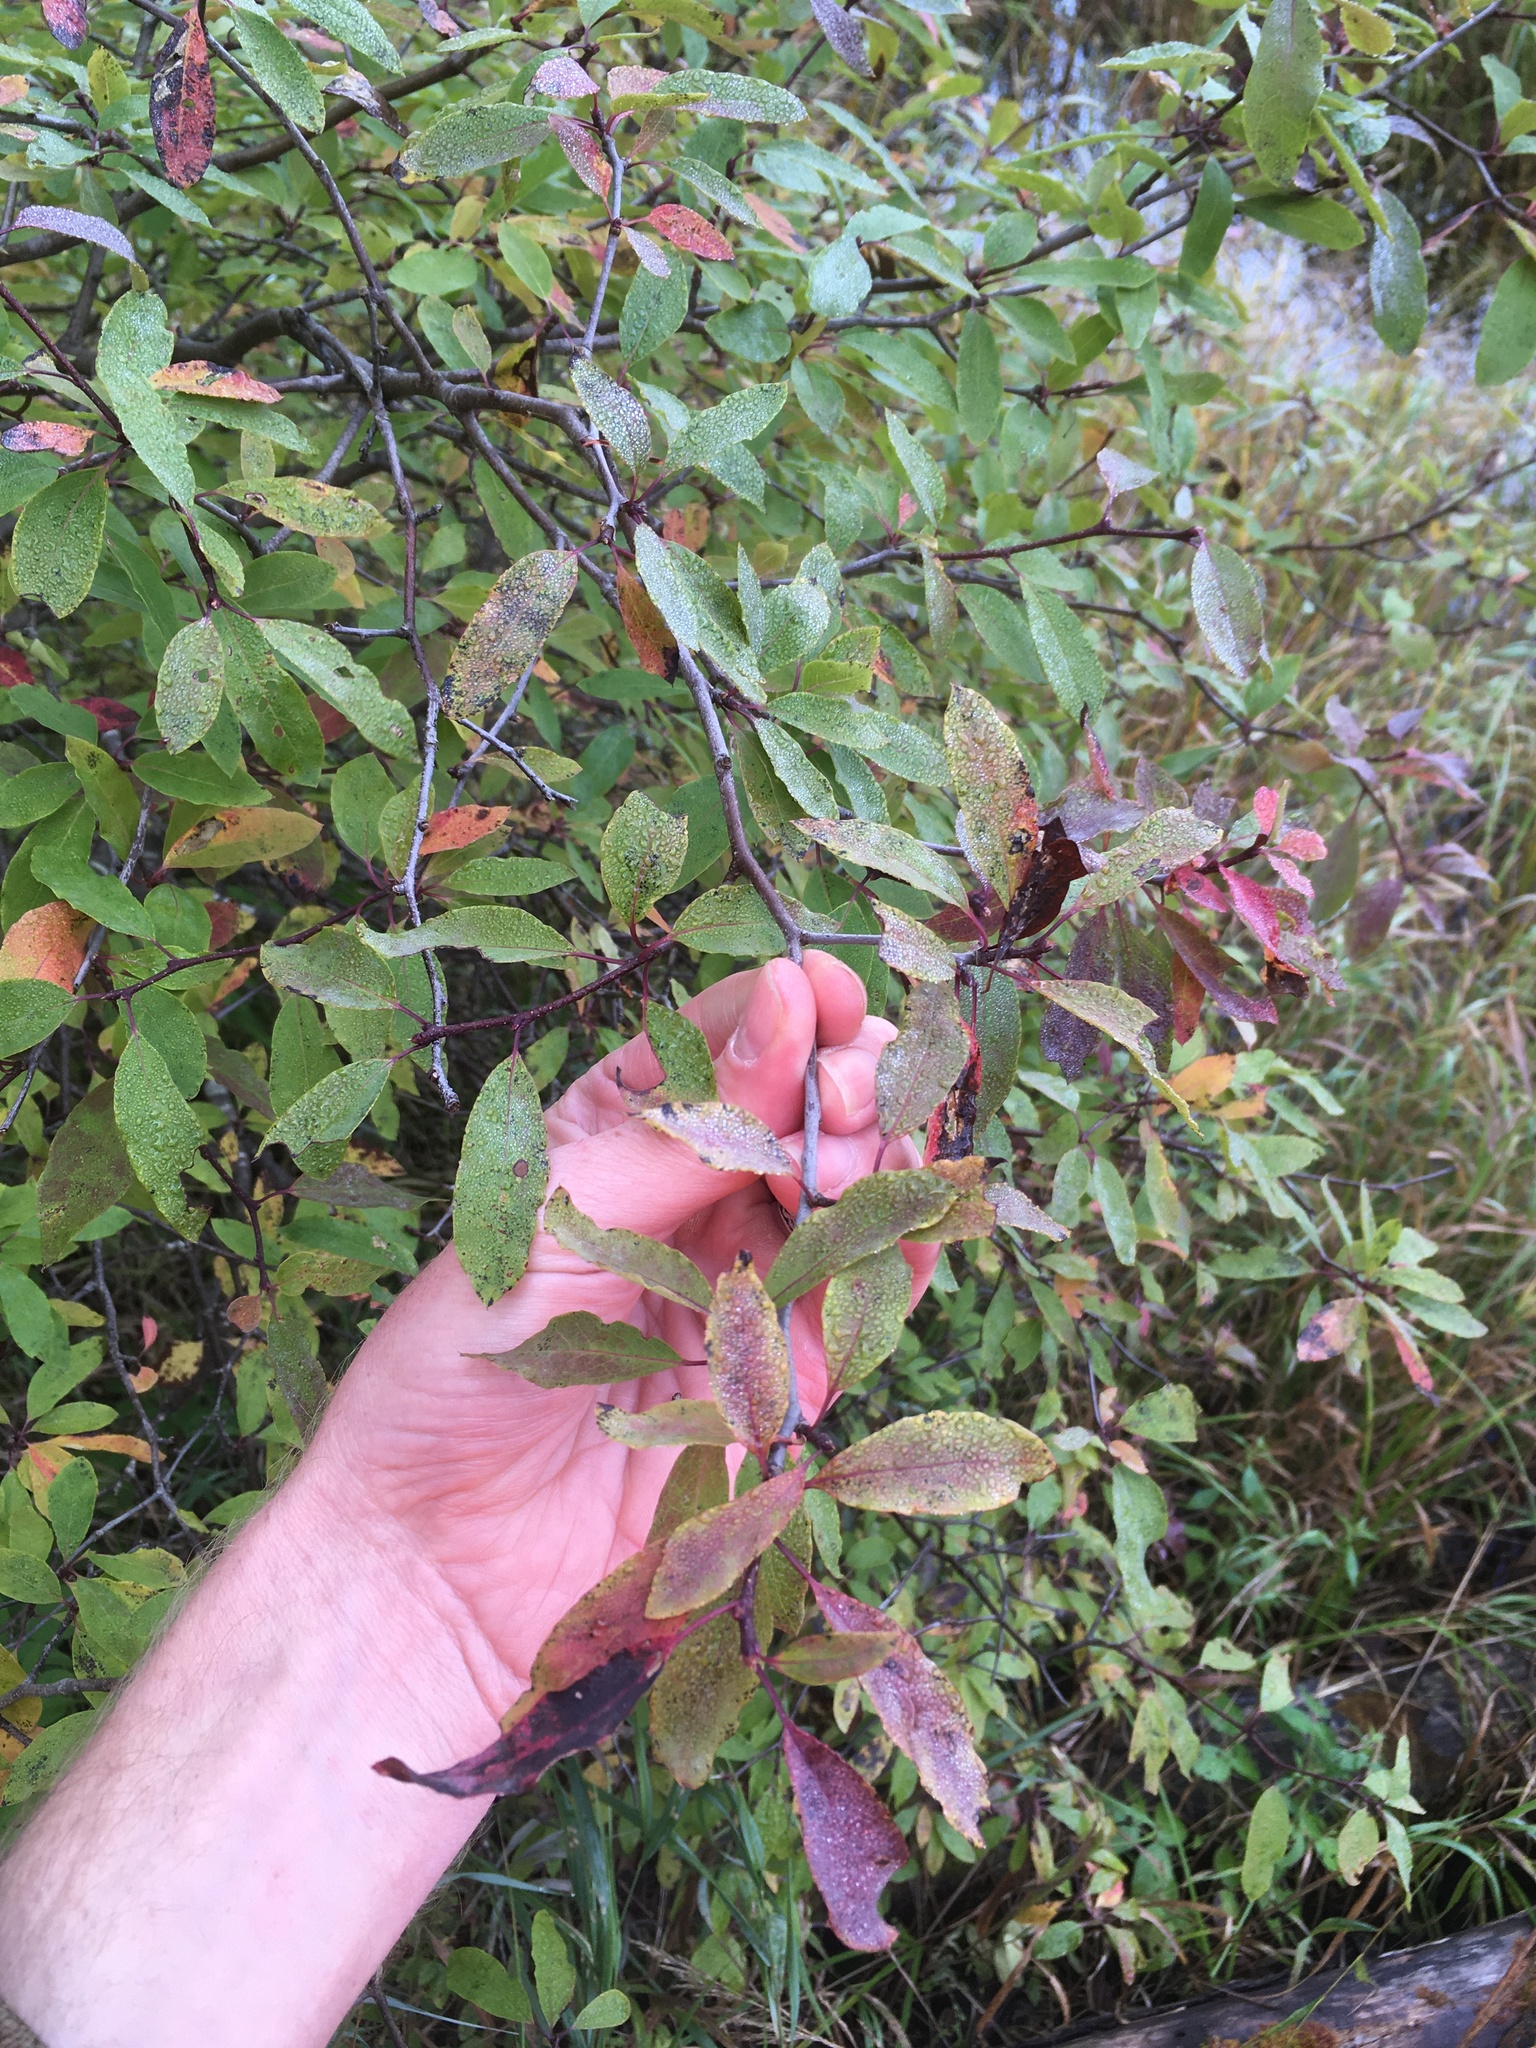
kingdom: Plantae
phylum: Tracheophyta
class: Magnoliopsida
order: Aquifoliales
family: Aquifoliaceae
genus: Ilex
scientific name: Ilex mucronata
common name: Catberry
